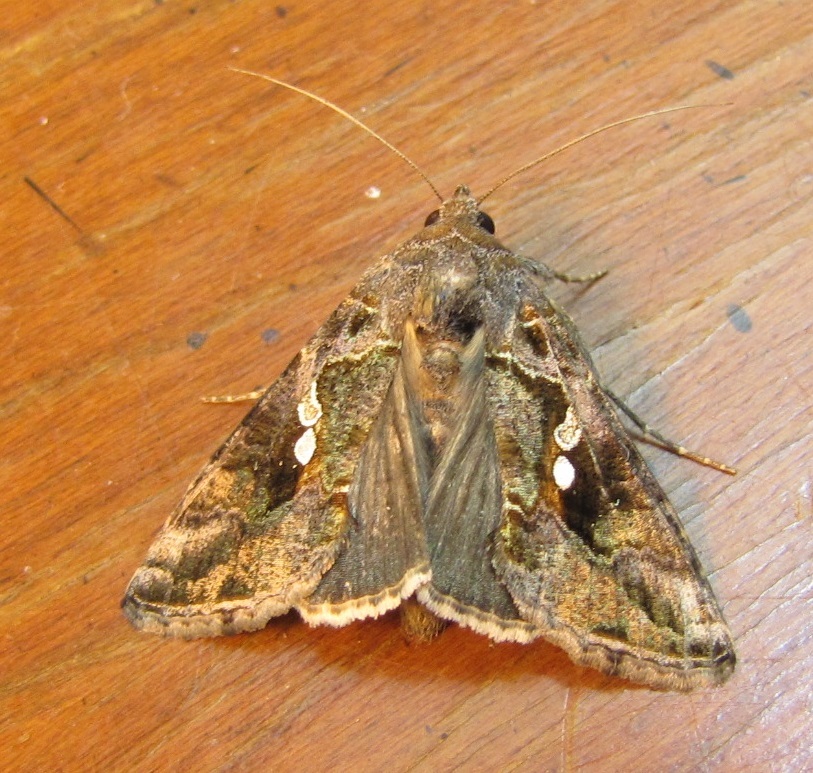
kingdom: Animalia
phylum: Arthropoda
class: Insecta
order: Lepidoptera
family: Noctuidae
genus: Chrysodeixis
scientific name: Chrysodeixis includens
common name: Cutworm moth
